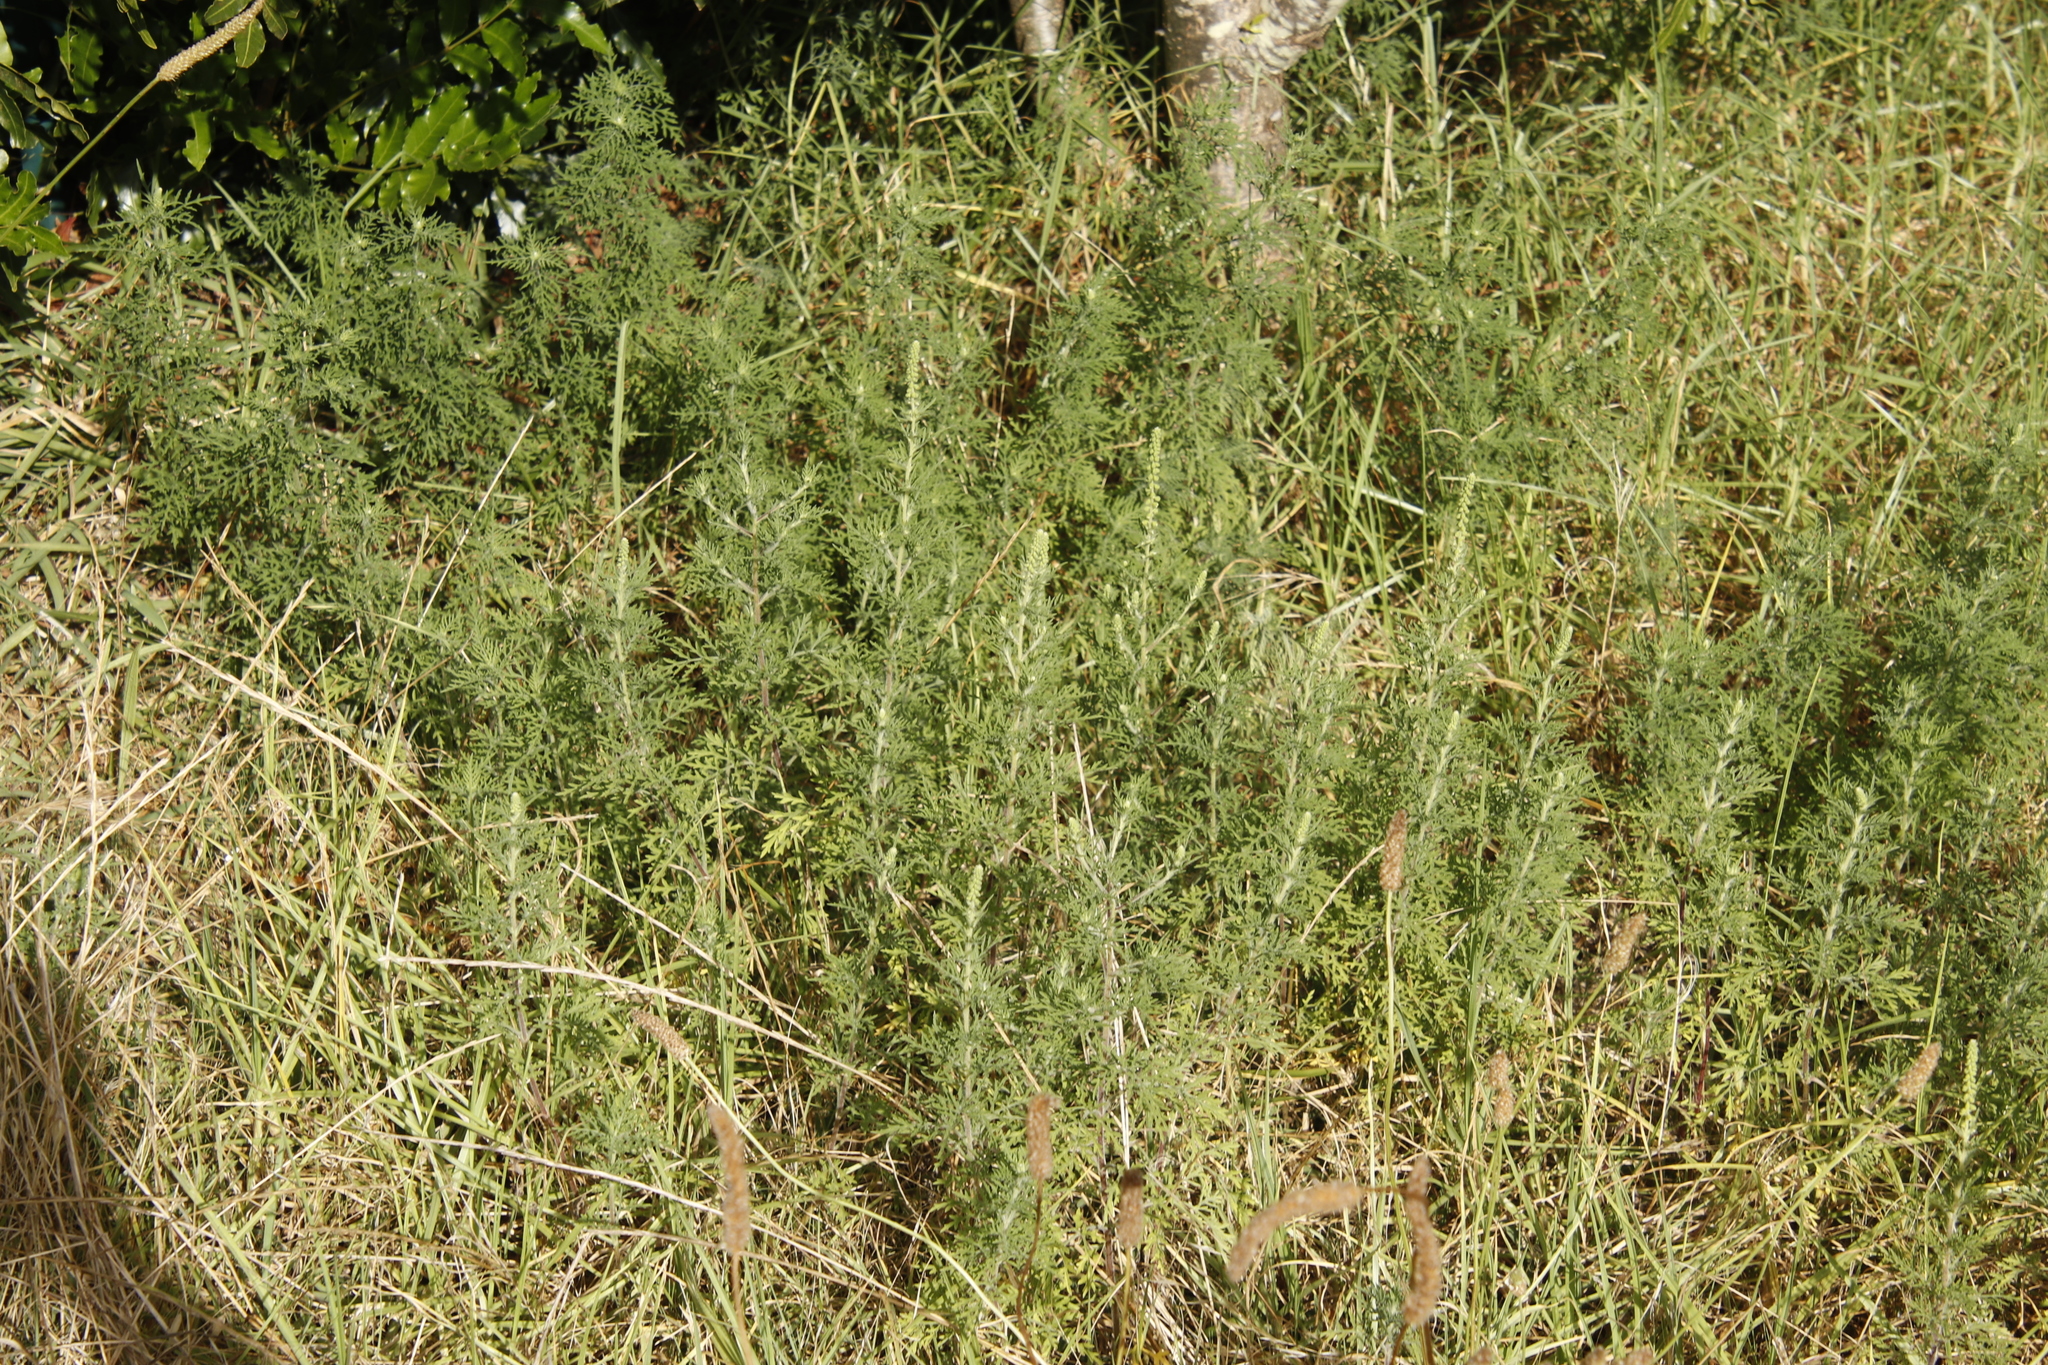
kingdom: Plantae
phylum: Tracheophyta
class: Magnoliopsida
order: Asterales
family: Asteraceae
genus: Ambrosia
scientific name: Ambrosia tenuifolia
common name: Lacy ambrosia
